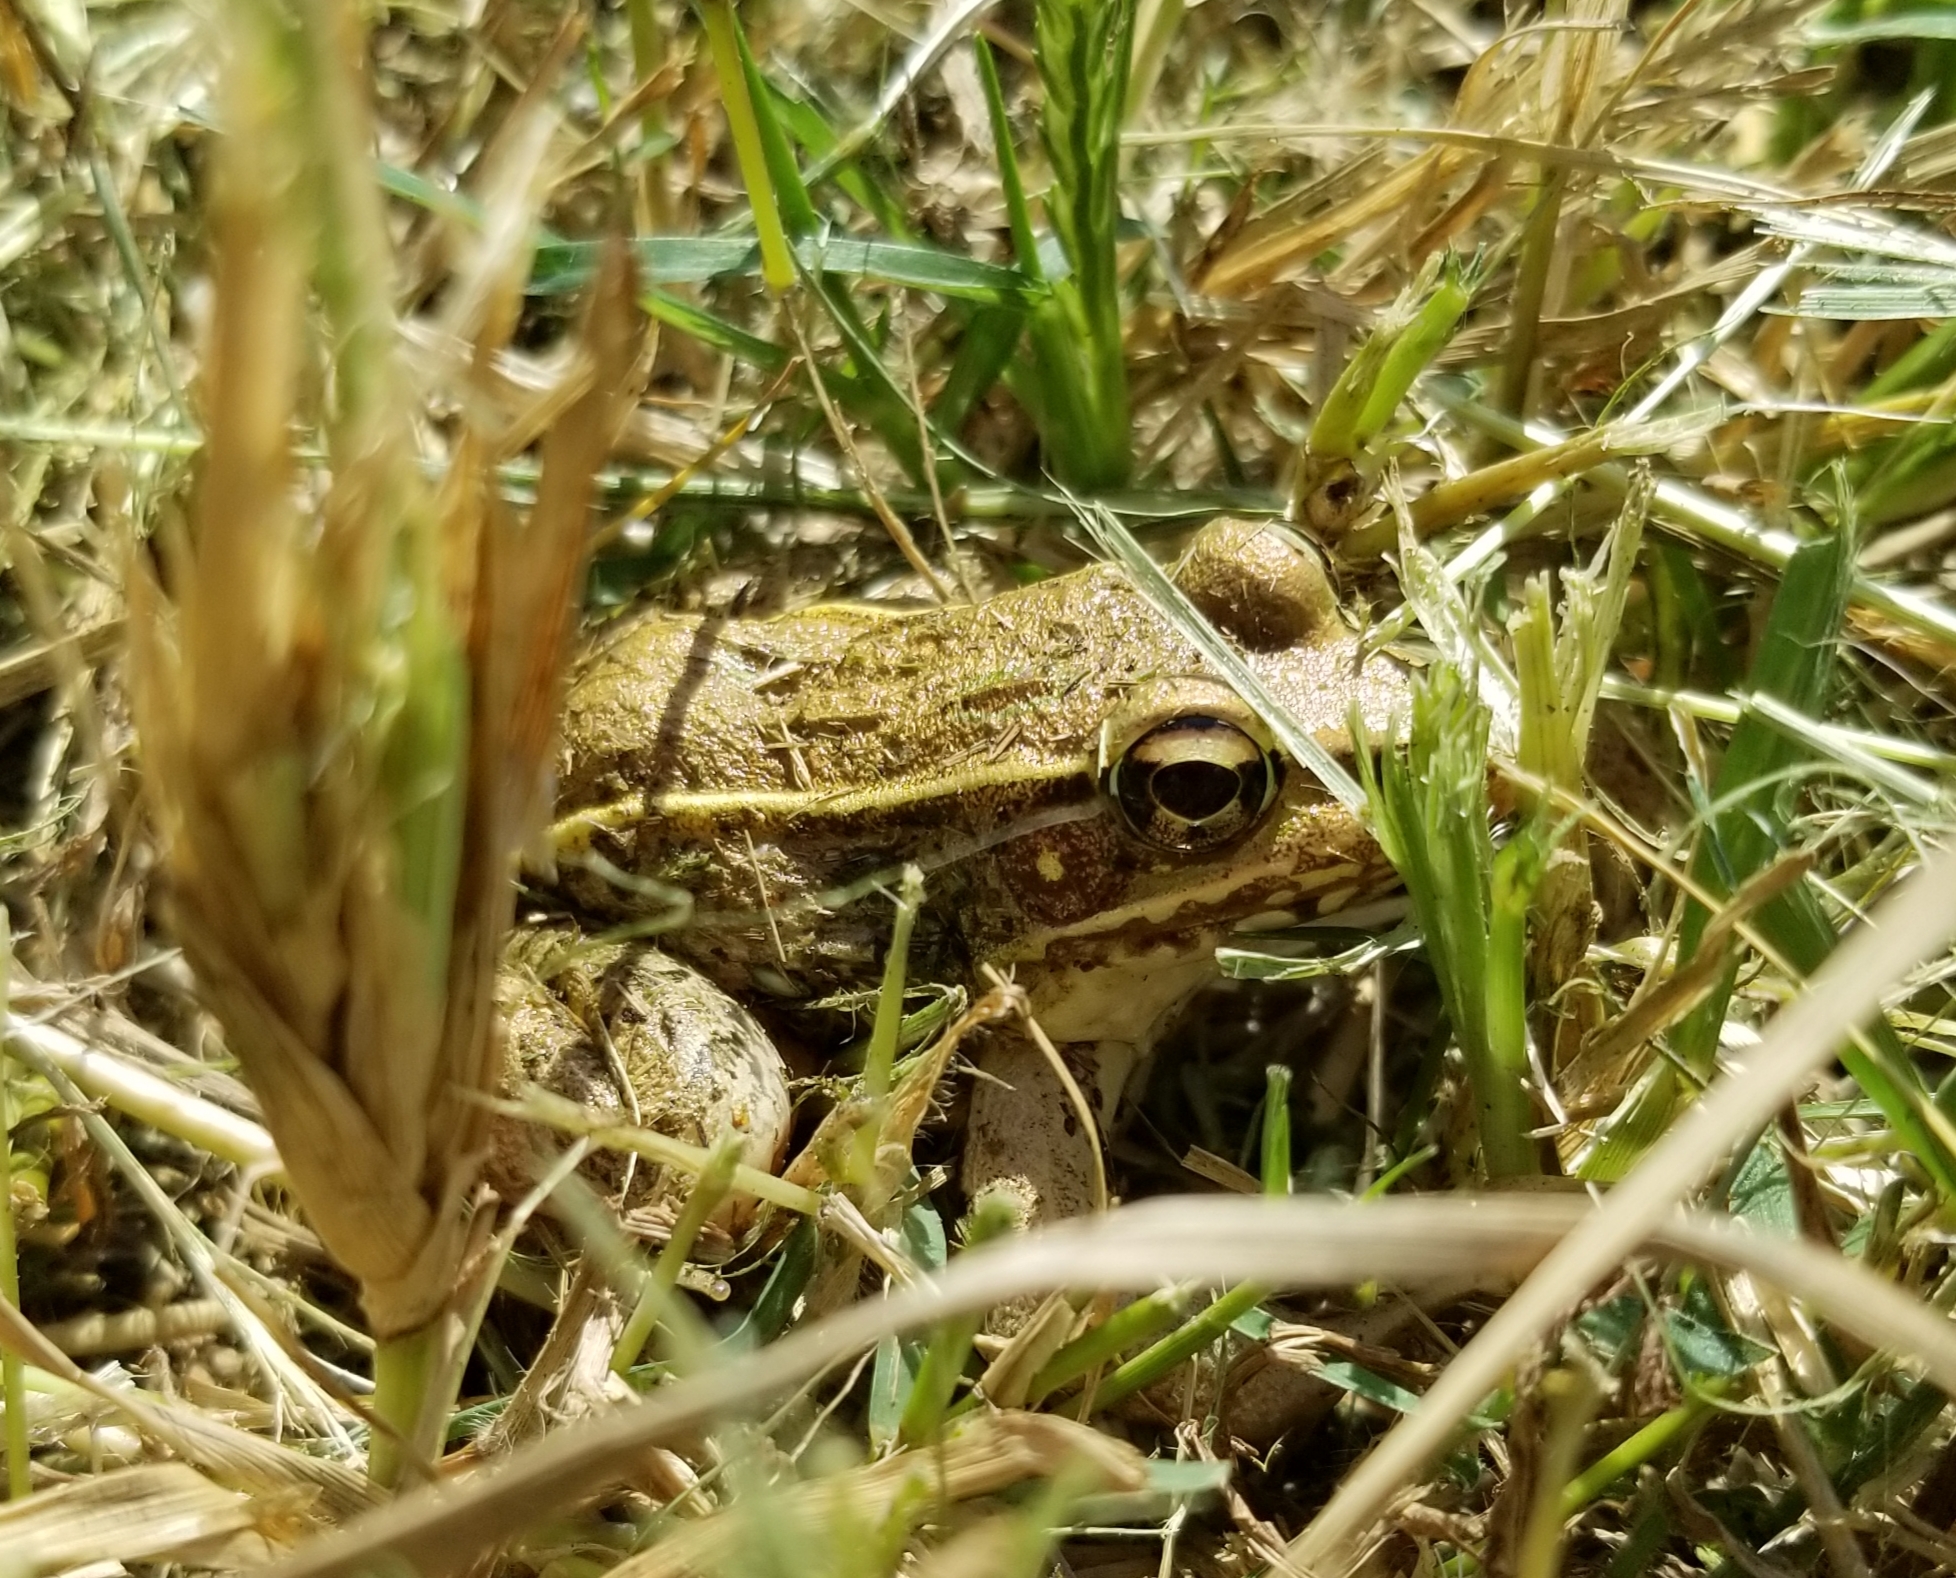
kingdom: Animalia
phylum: Chordata
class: Amphibia
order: Anura
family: Ranidae
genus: Lithobates
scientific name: Lithobates sphenocephalus
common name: Southern leopard frog
